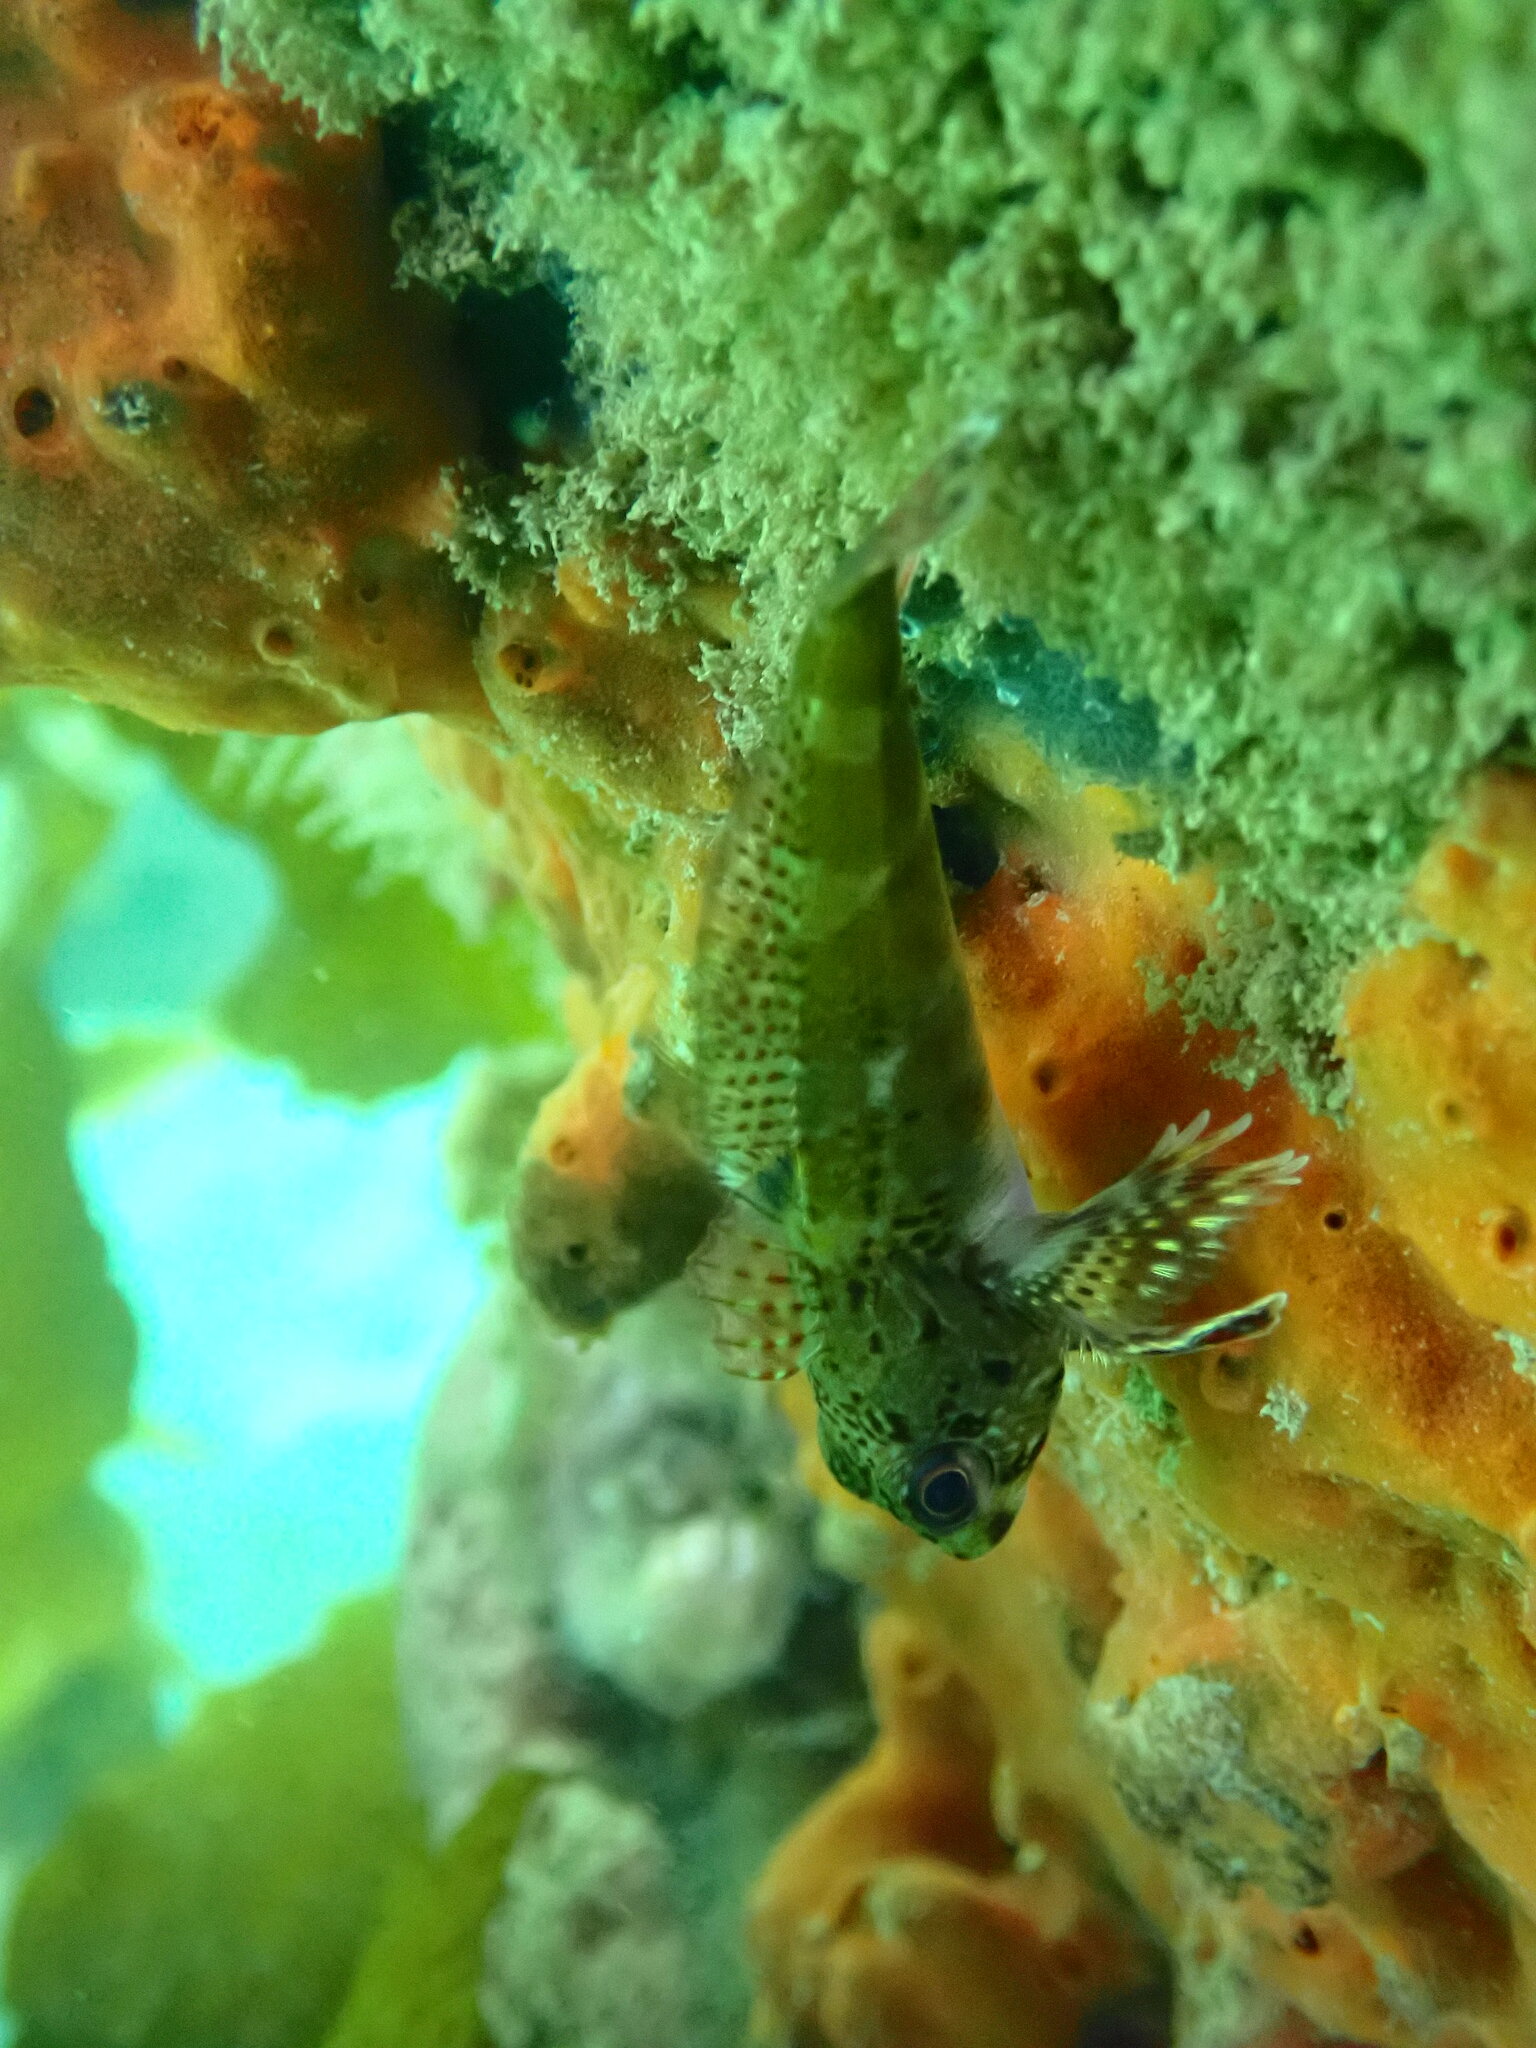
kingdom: Animalia
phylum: Chordata
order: Perciformes
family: Bovichtidae
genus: Bovichtus
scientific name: Bovichtus angustifrons
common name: Dragonet
